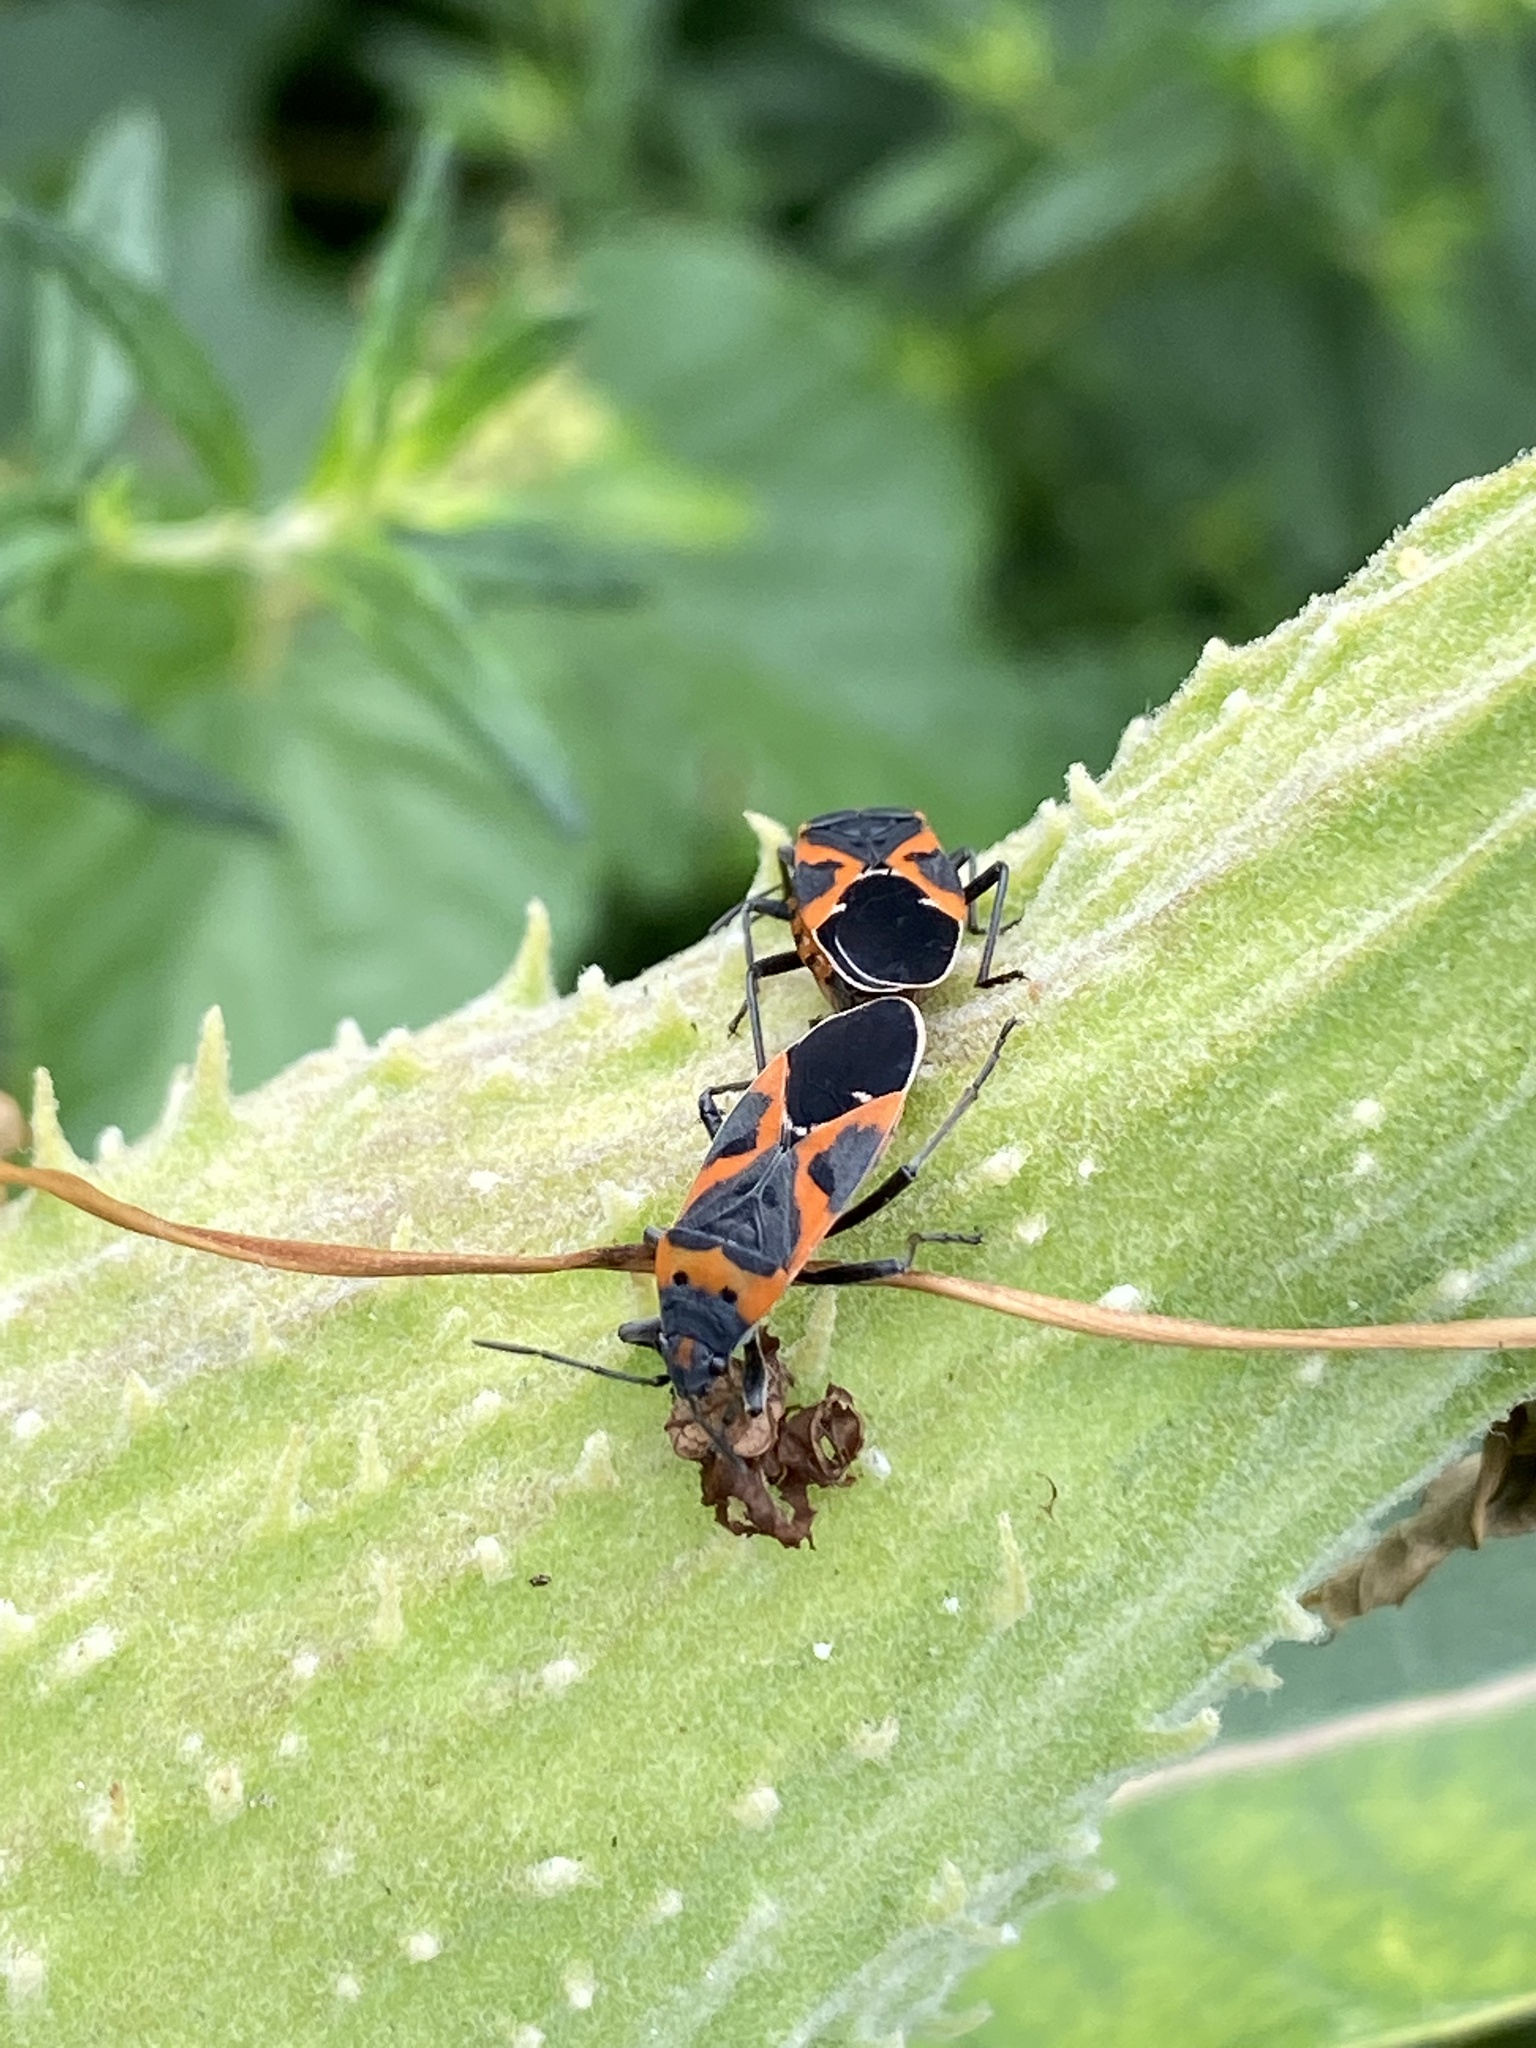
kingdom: Animalia
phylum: Arthropoda
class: Insecta
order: Hemiptera
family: Lygaeidae
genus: Lygaeus
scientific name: Lygaeus kalmii
